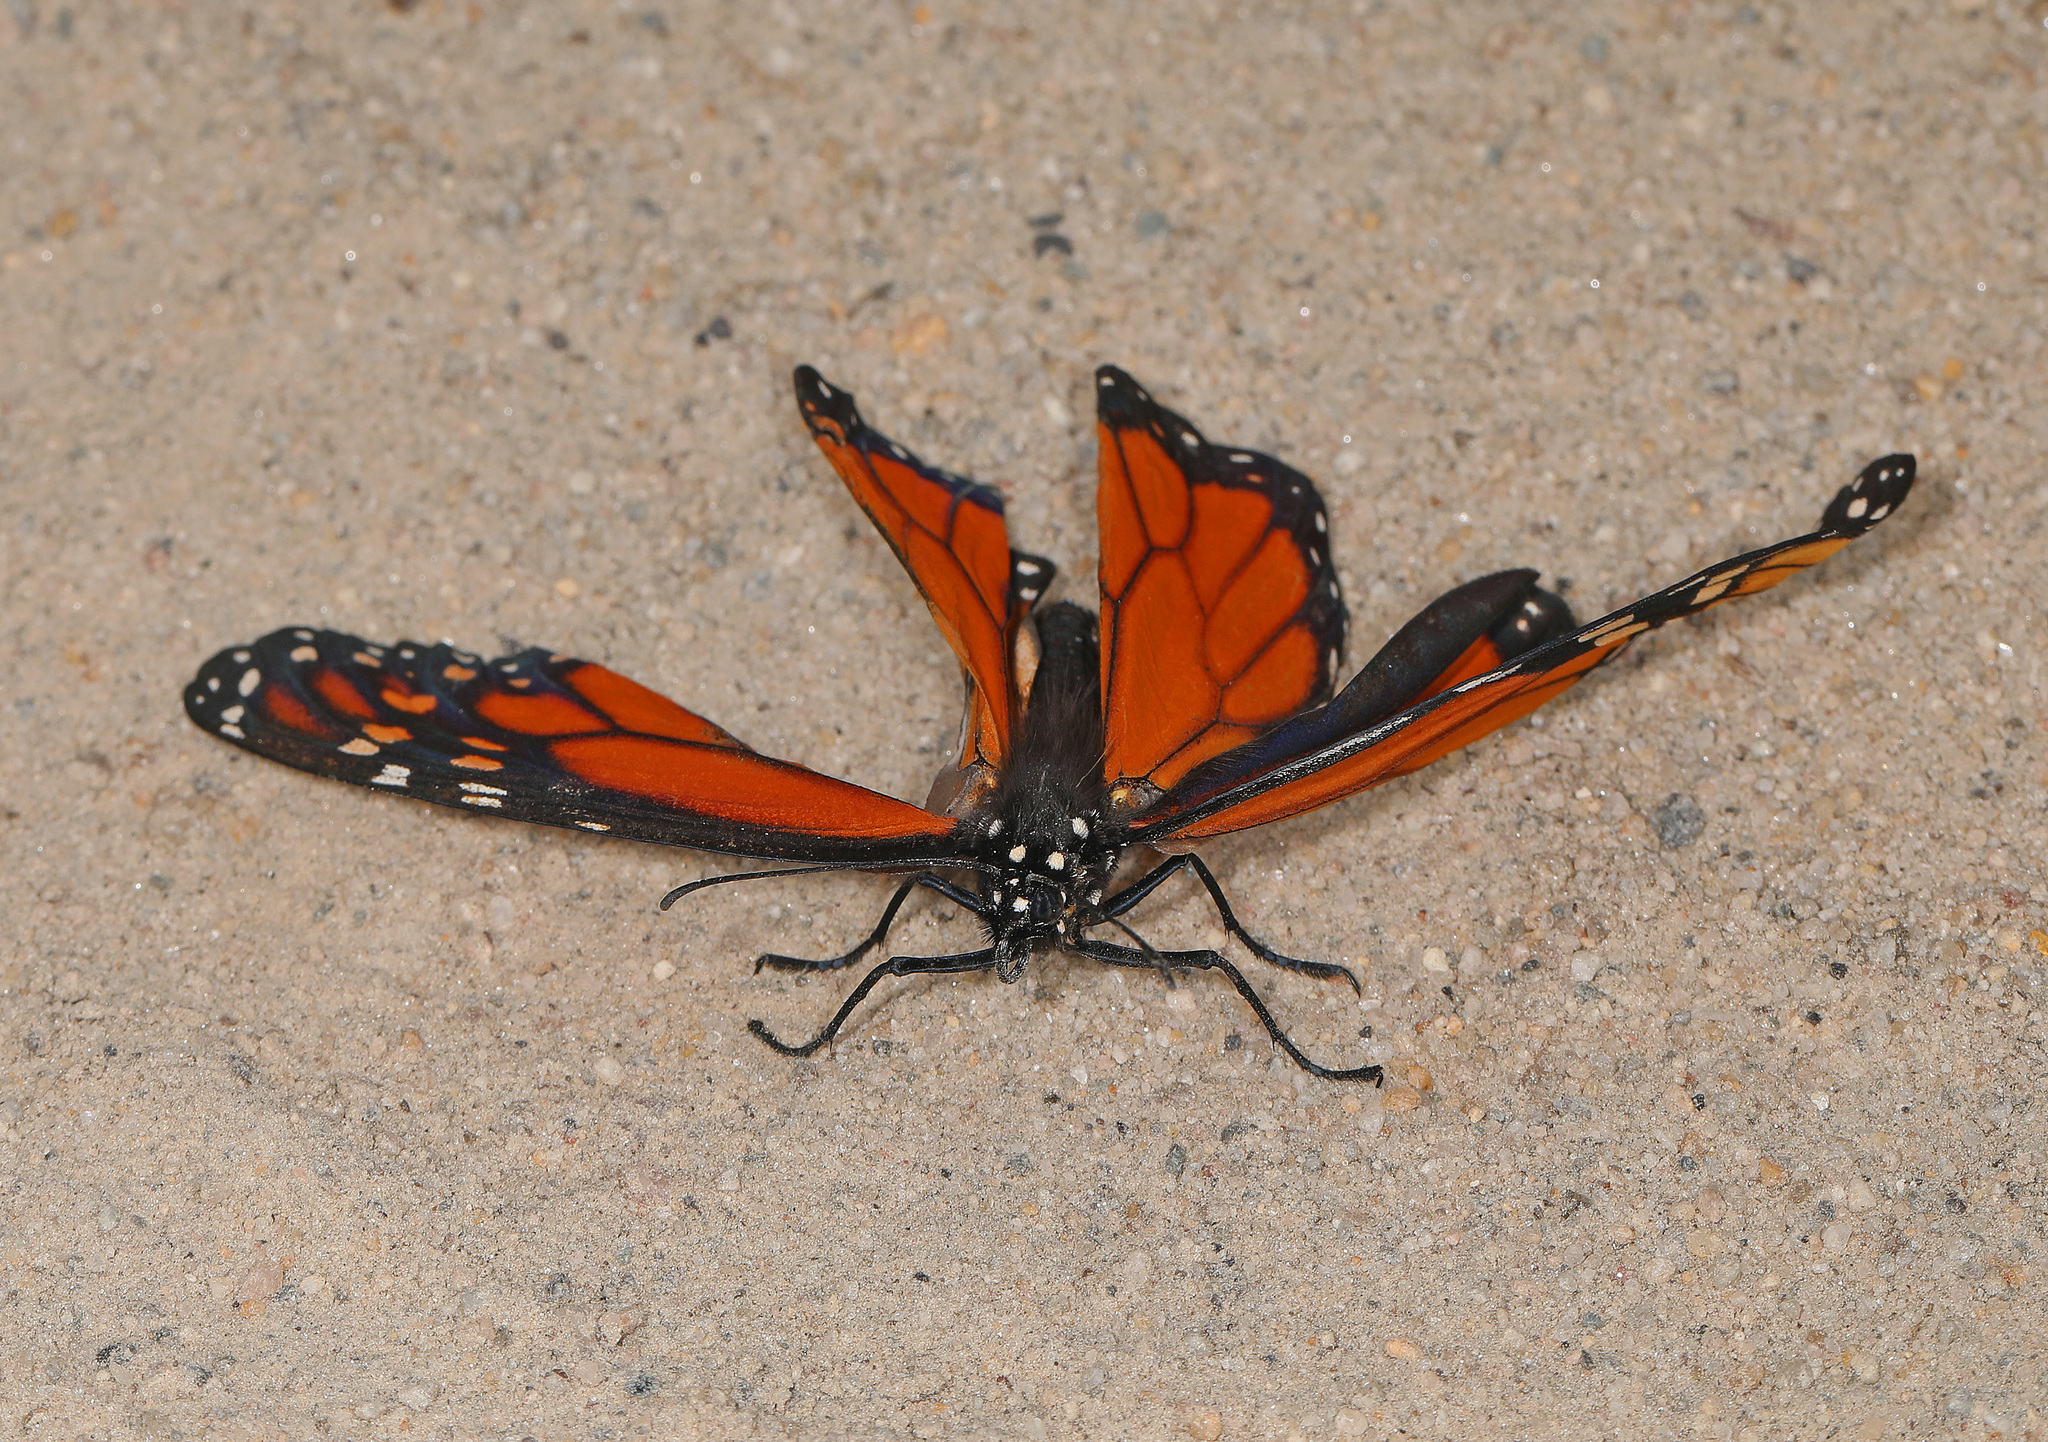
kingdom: Animalia
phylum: Arthropoda
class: Insecta
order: Lepidoptera
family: Nymphalidae
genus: Danaus
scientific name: Danaus plexippus
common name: Monarch
